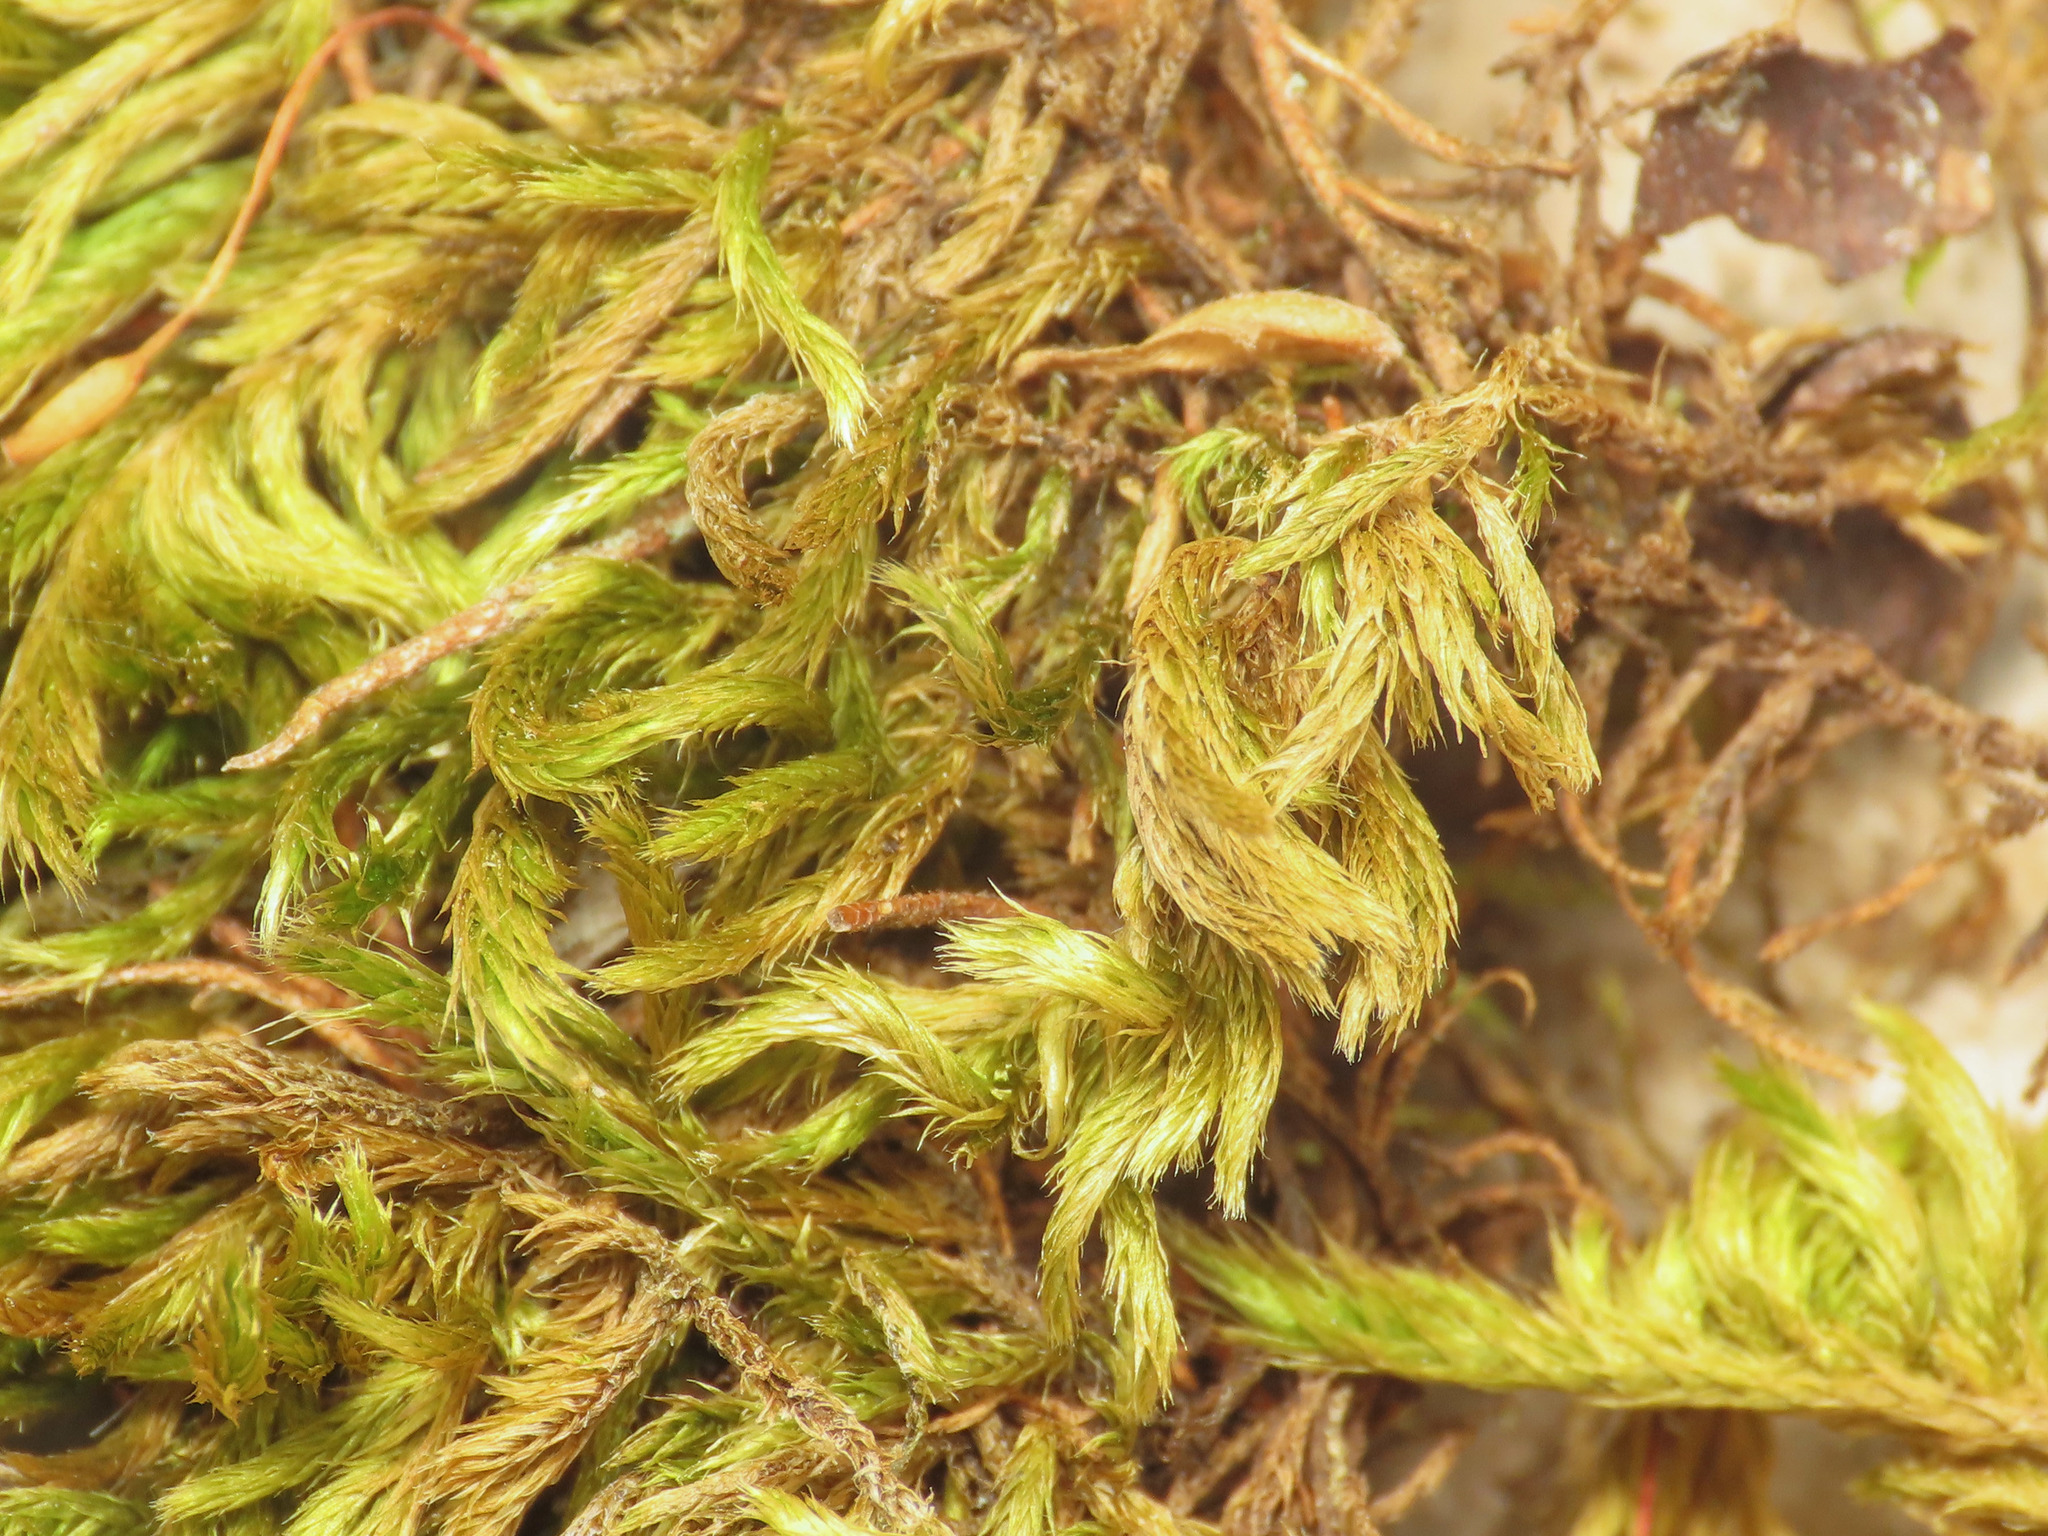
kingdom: Plantae
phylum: Bryophyta
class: Bryopsida
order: Hypnales
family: Brachytheciaceae
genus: Homalothecium
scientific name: Homalothecium sericeum
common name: Silky wall feather-moss
